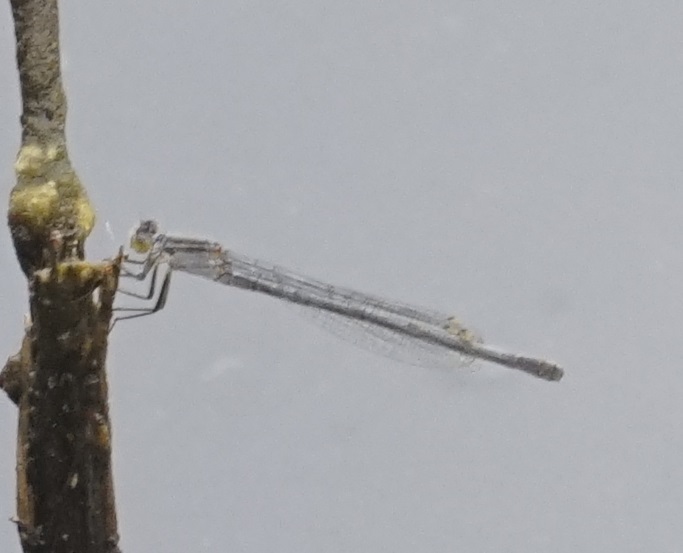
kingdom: Animalia
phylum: Arthropoda
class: Insecta
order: Odonata
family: Coenagrionidae
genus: Ischnura
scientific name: Ischnura heterosticta
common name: Common bluetail
